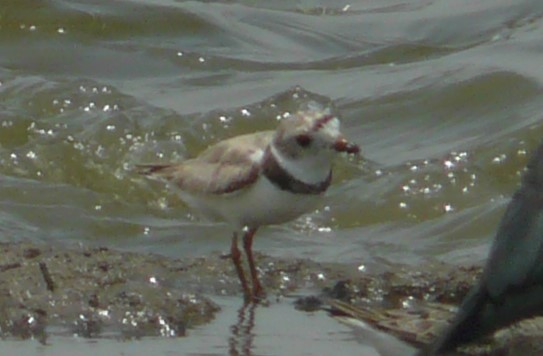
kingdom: Animalia
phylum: Chordata
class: Aves
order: Charadriiformes
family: Charadriidae
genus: Charadrius
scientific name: Charadrius melodus
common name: Piping plover
